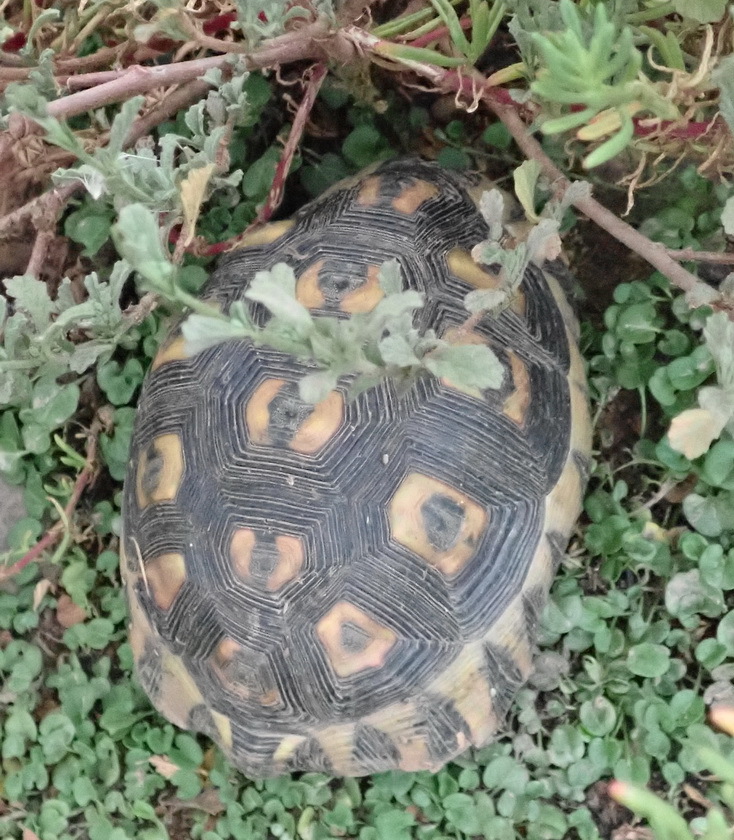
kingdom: Animalia
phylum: Chordata
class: Testudines
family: Testudinidae
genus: Chersina
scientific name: Chersina angulata
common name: South african bowsprit tortoise
